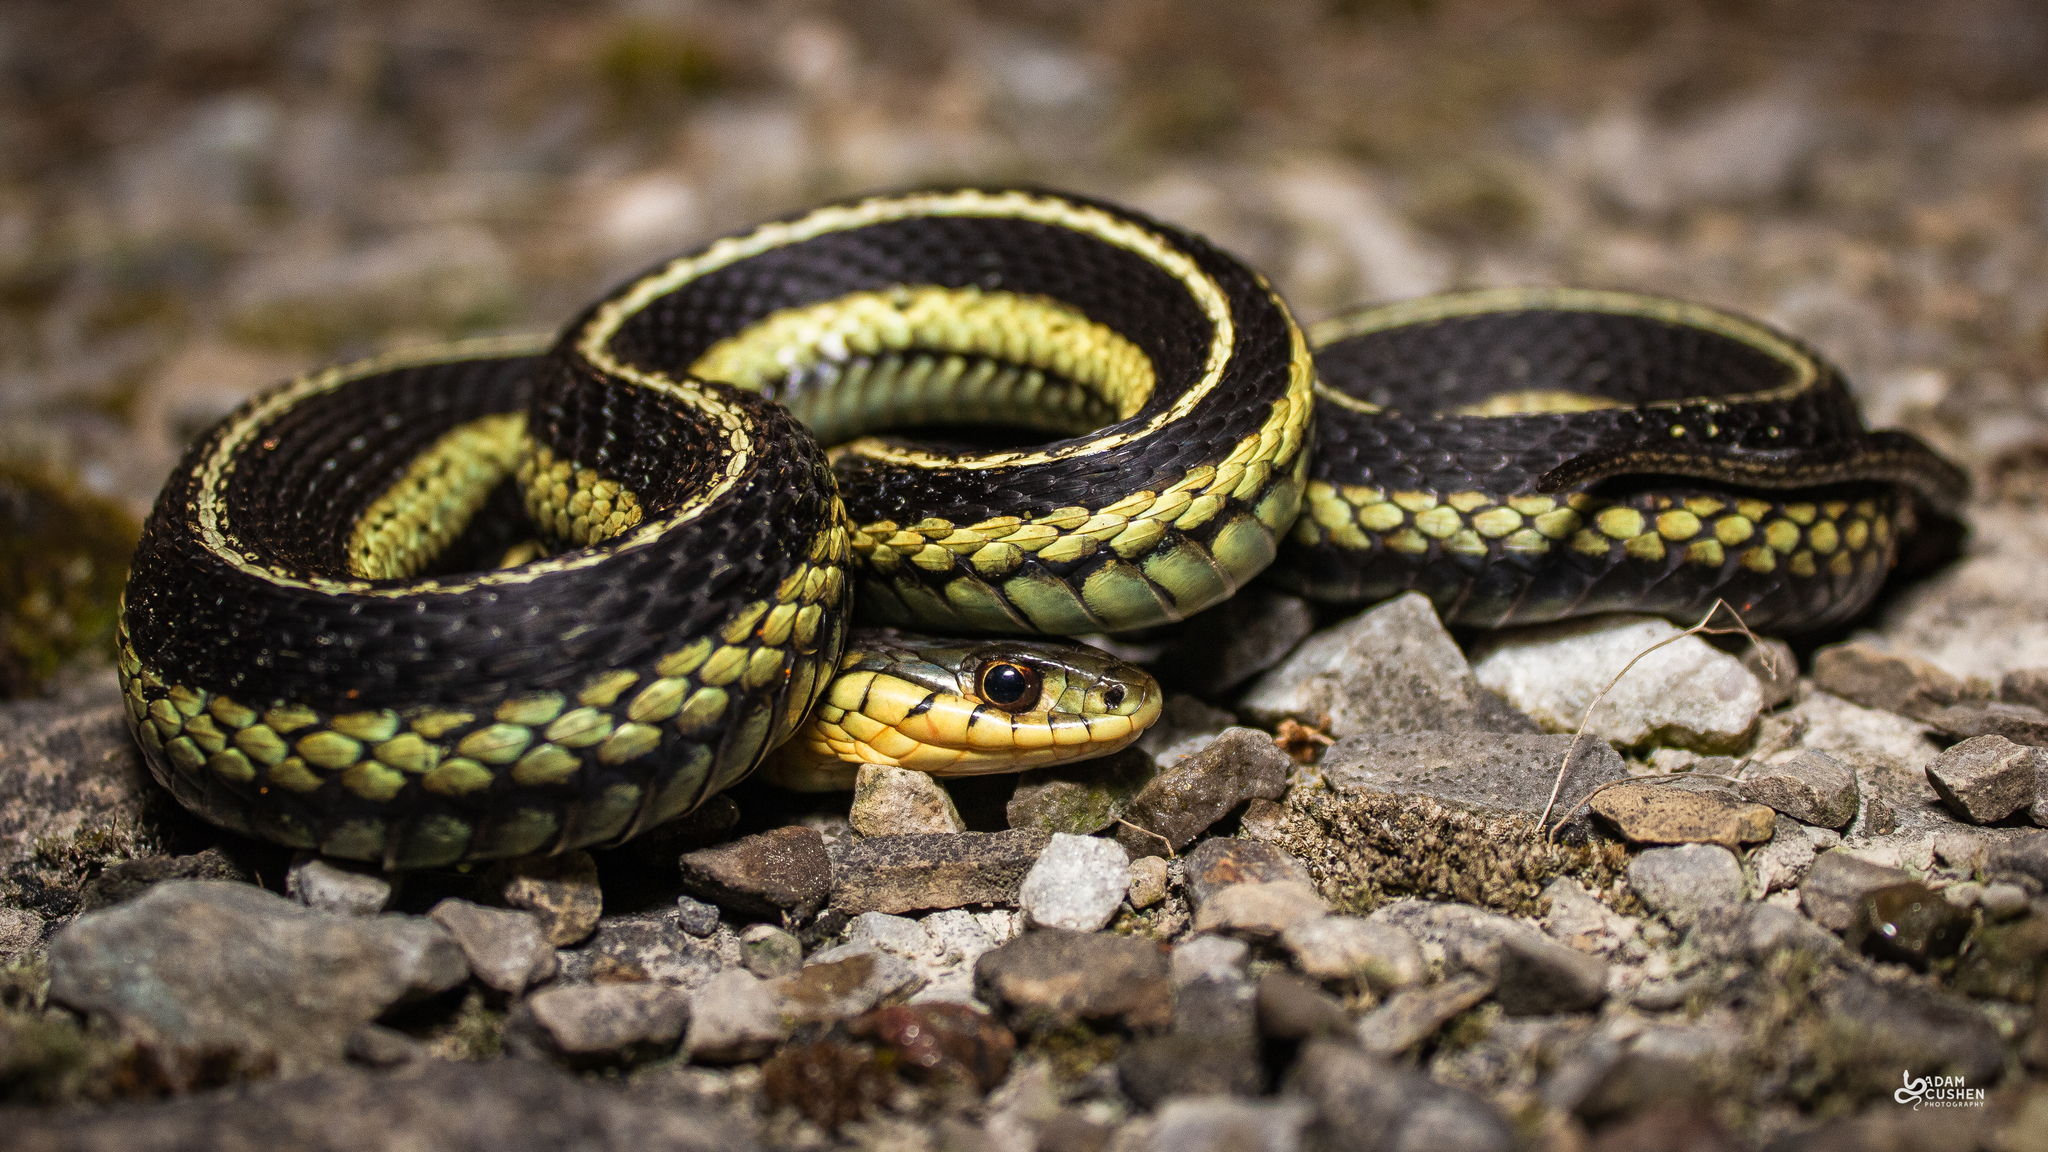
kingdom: Animalia
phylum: Chordata
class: Squamata
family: Colubridae
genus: Thamnophis
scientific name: Thamnophis sirtalis
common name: Common garter snake
